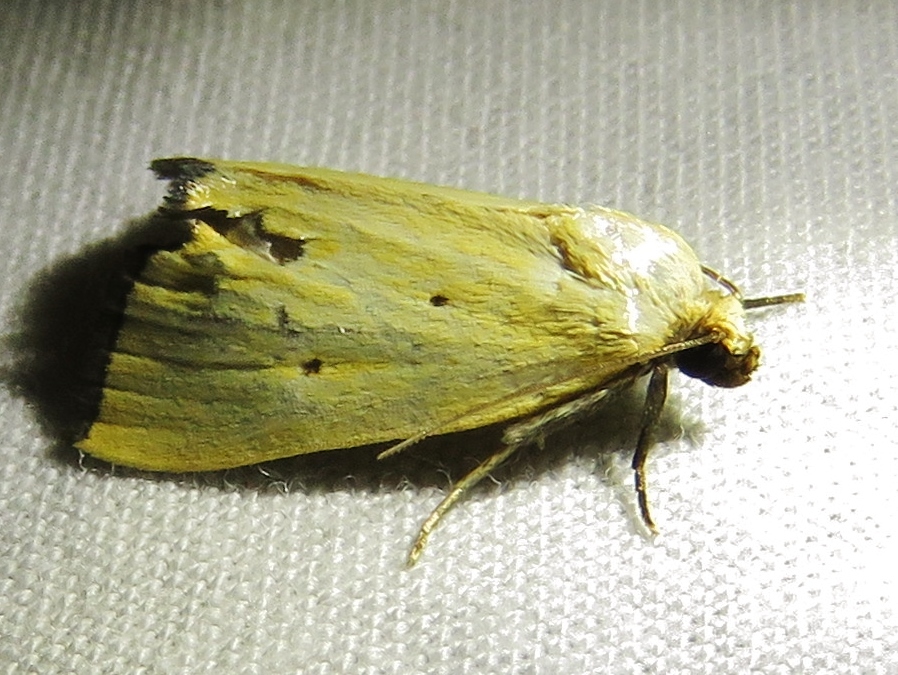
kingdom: Animalia
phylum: Arthropoda
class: Insecta
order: Lepidoptera
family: Noctuidae
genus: Marimatha
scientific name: Marimatha nigrofimbria
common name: Black-bordered lemon moth
